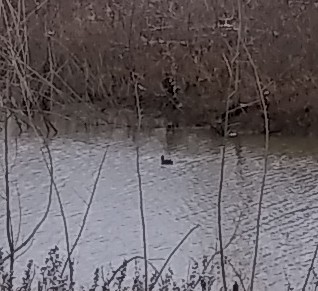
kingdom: Animalia
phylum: Chordata
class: Aves
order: Gruiformes
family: Rallidae
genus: Fulica
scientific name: Fulica americana
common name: American coot
